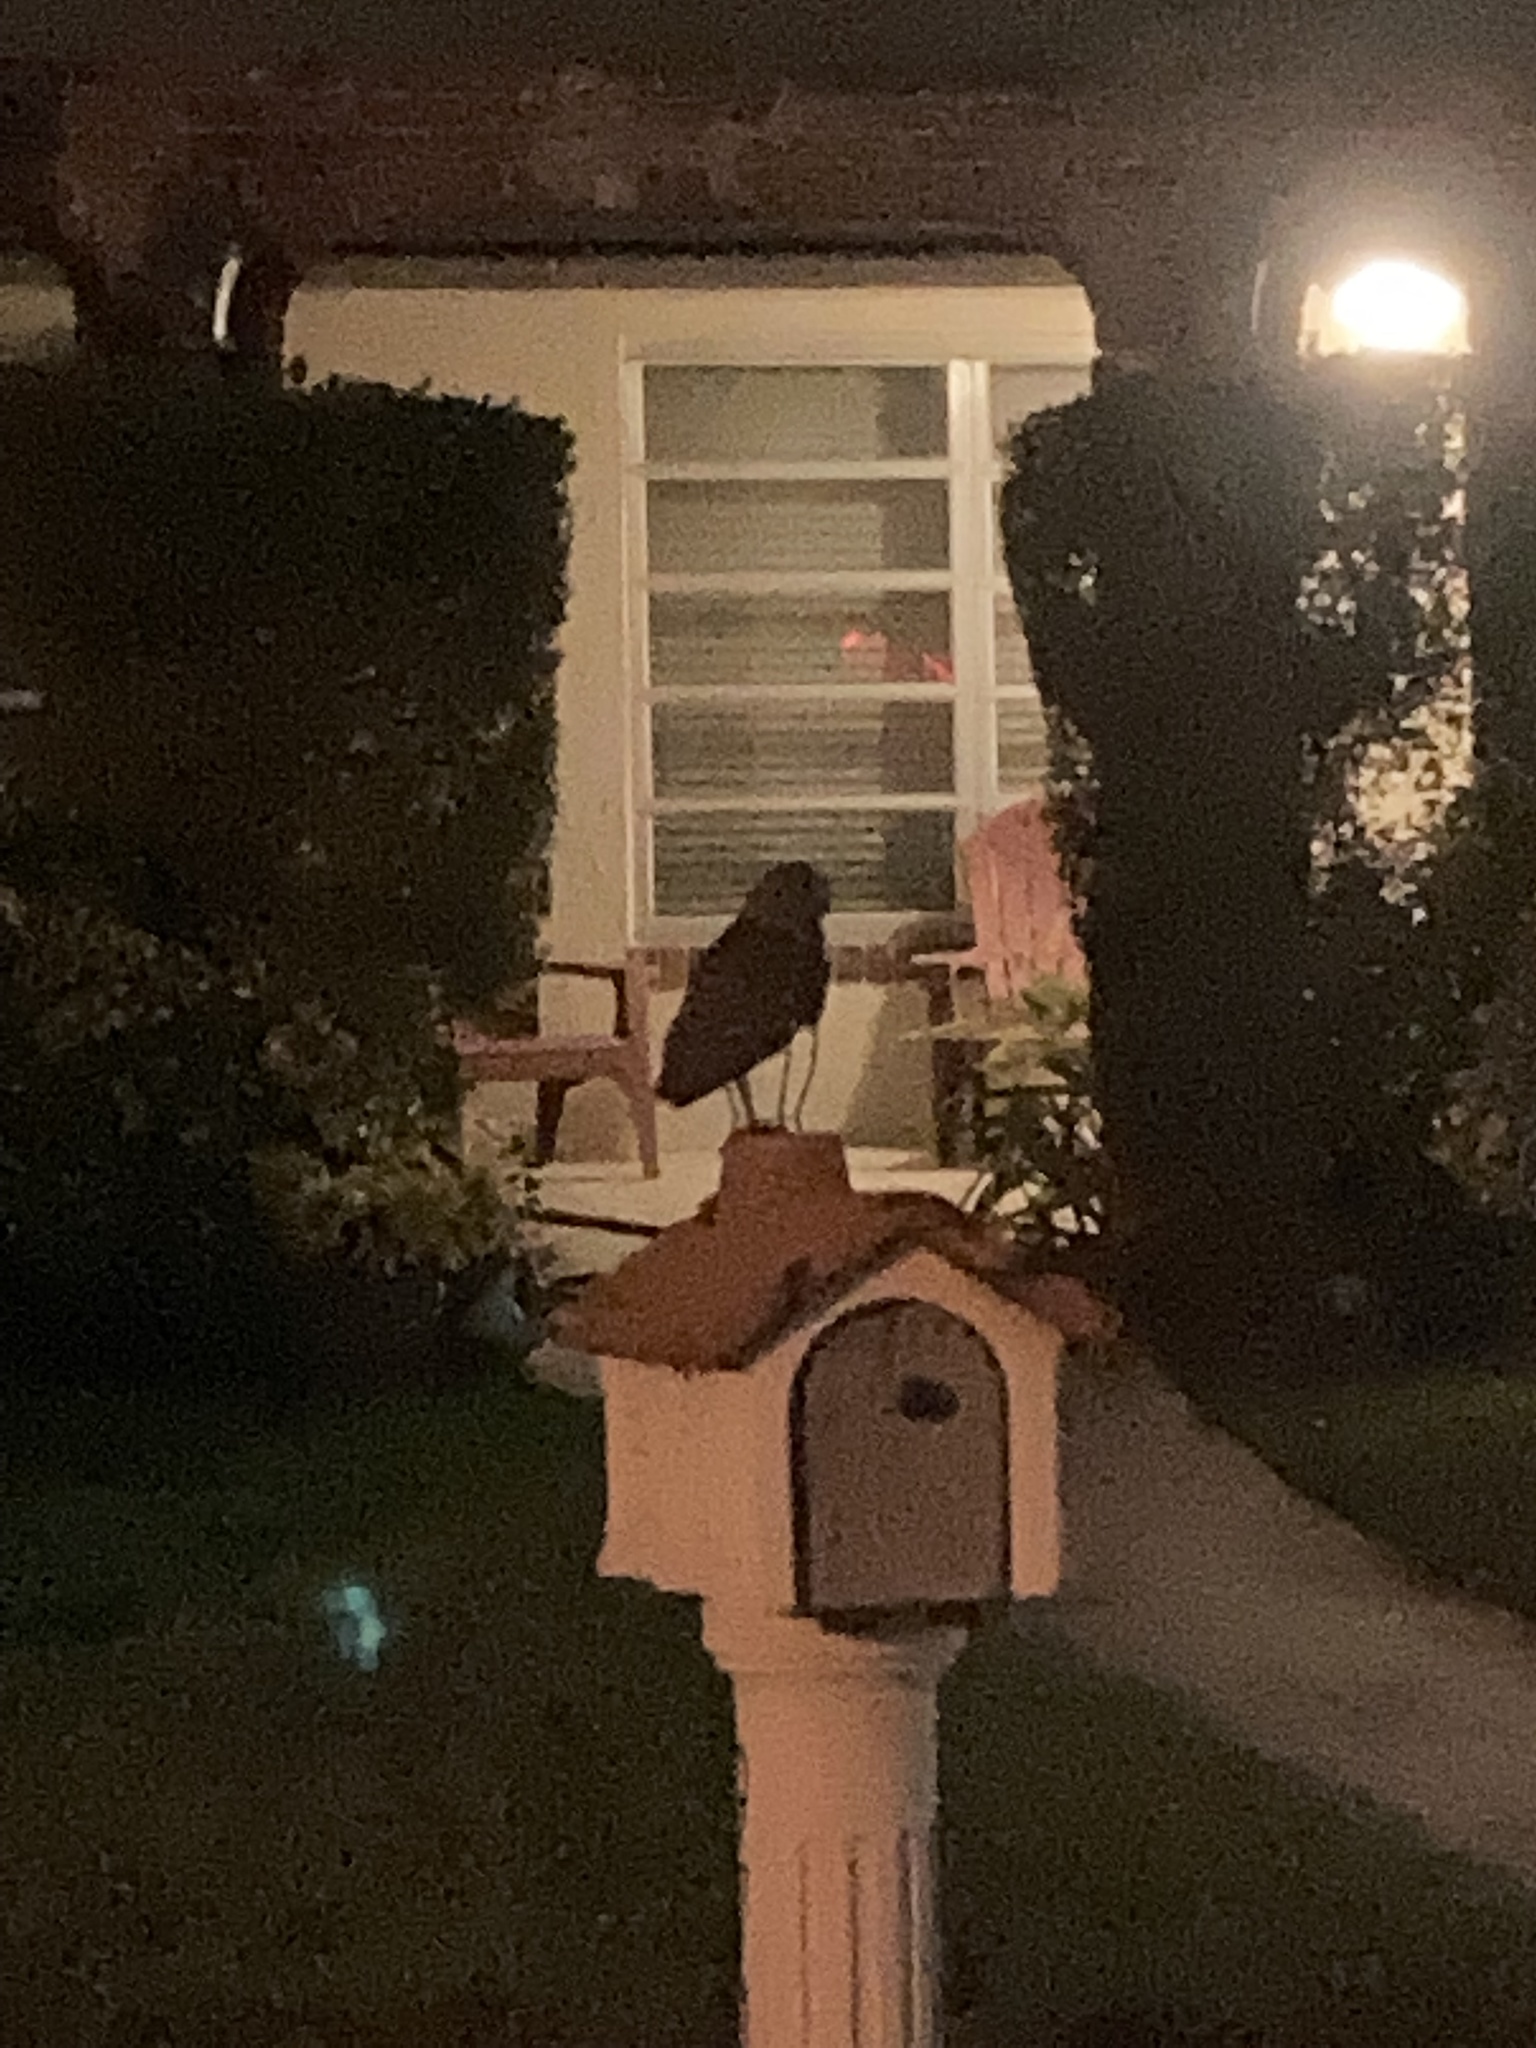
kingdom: Animalia
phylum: Chordata
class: Aves
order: Strigiformes
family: Strigidae
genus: Athene
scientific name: Athene cunicularia
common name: Burrowing owl
